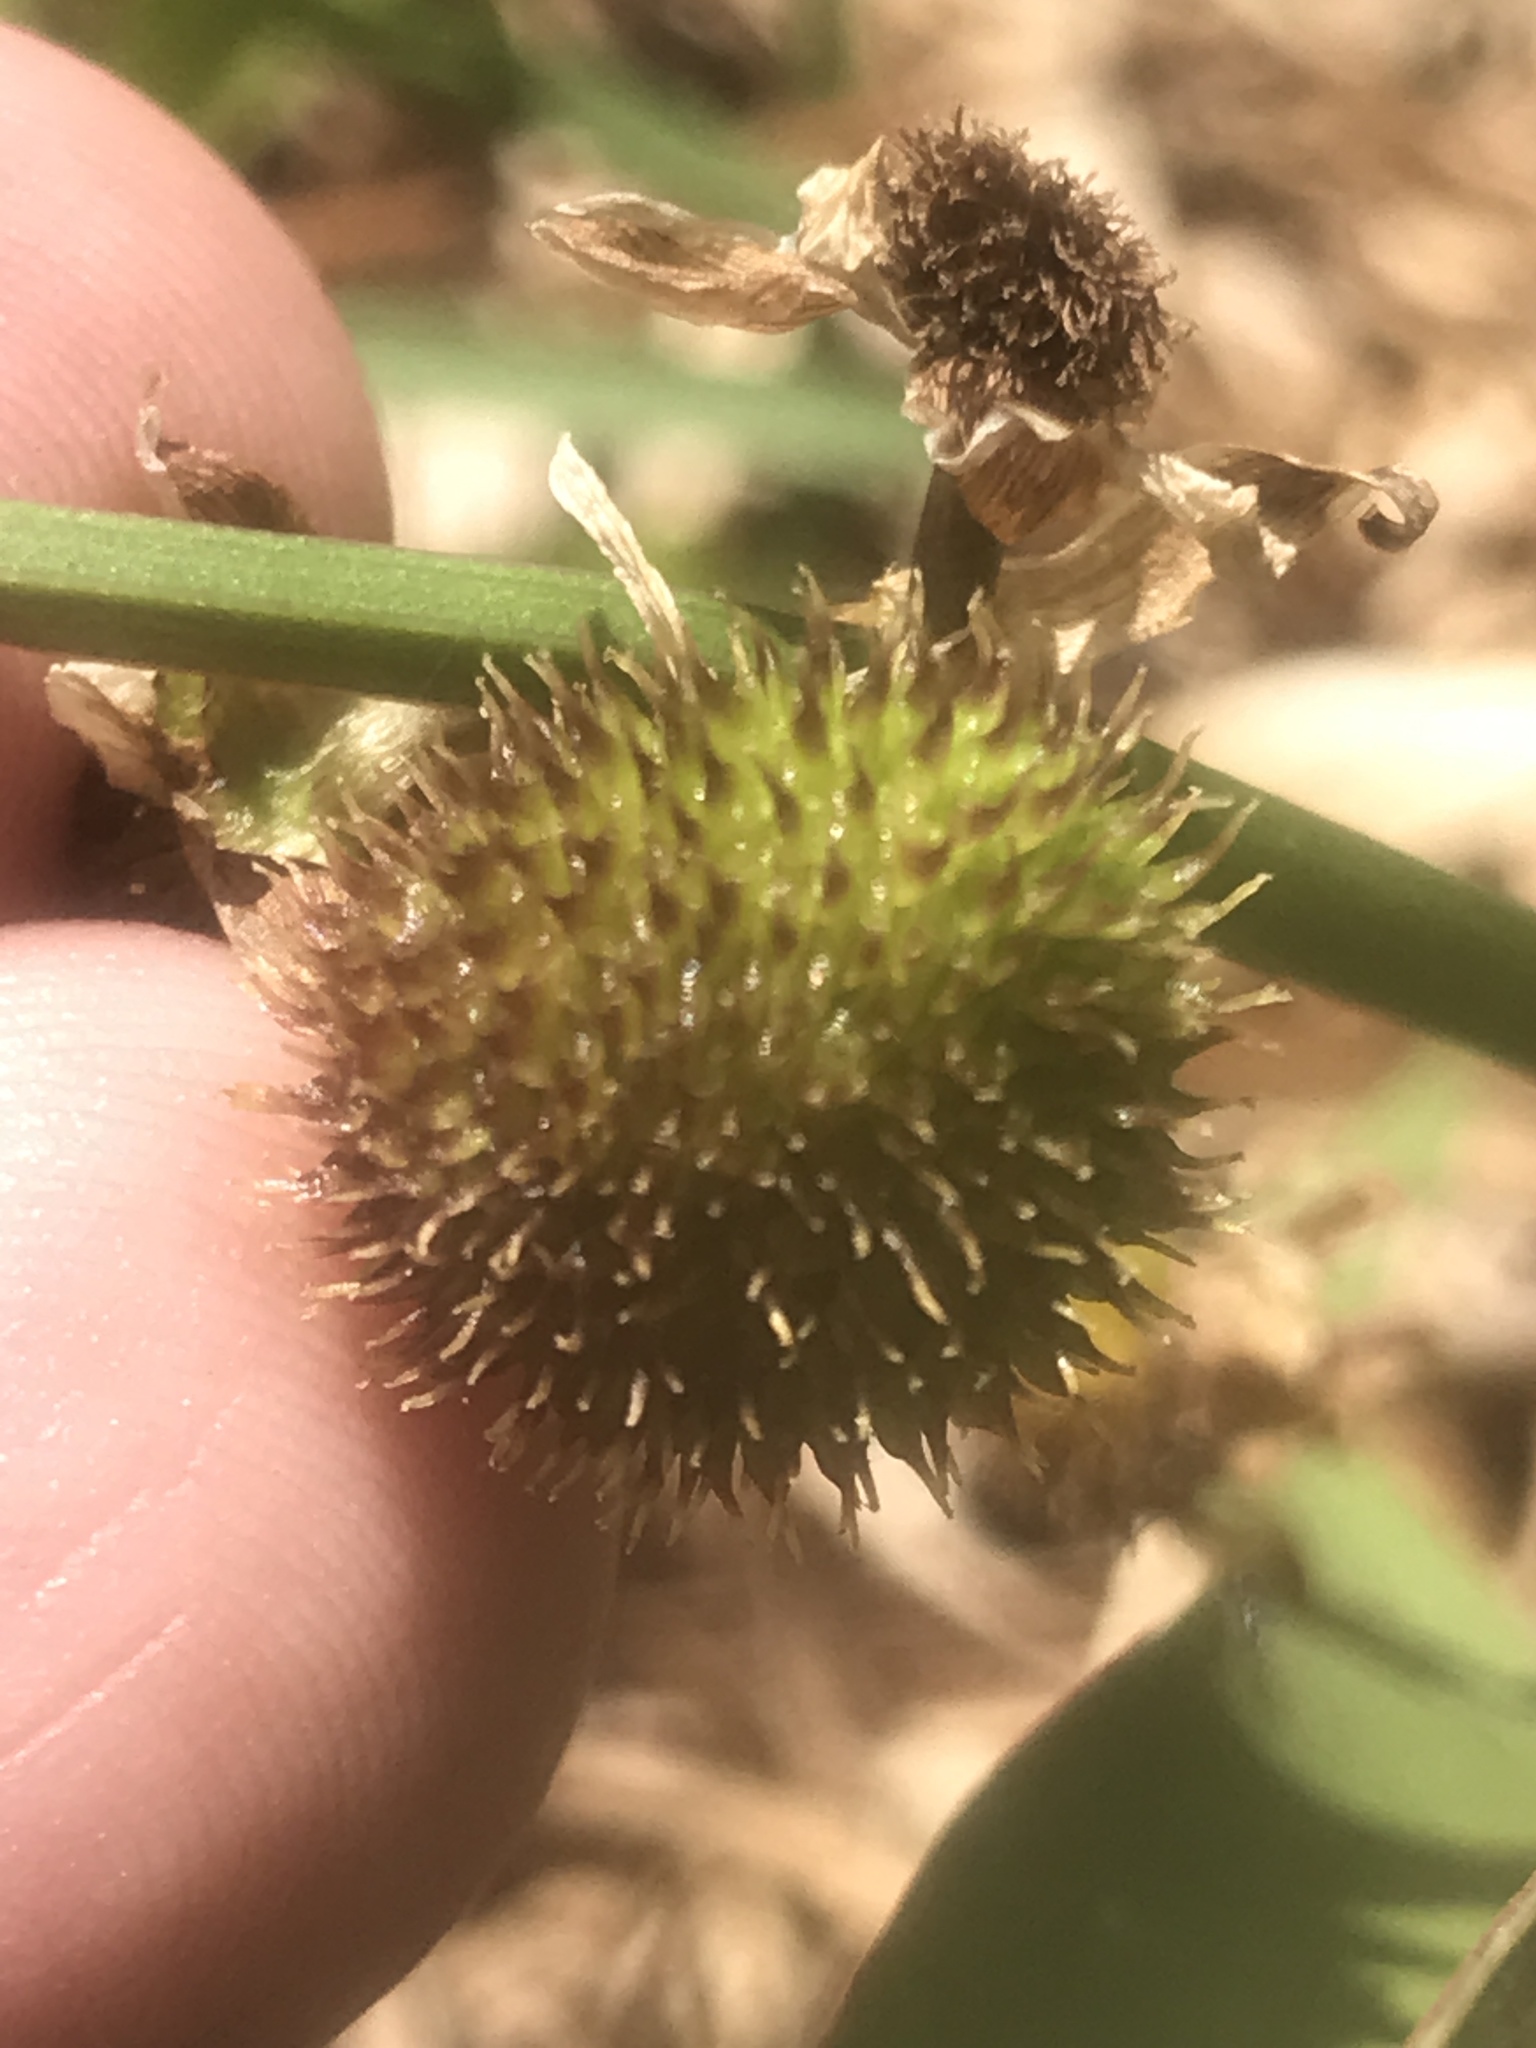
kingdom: Plantae
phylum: Tracheophyta
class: Liliopsida
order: Alismatales
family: Alismataceae
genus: Sagittaria
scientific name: Sagittaria engelmanniana
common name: Acid-water arrowhead
